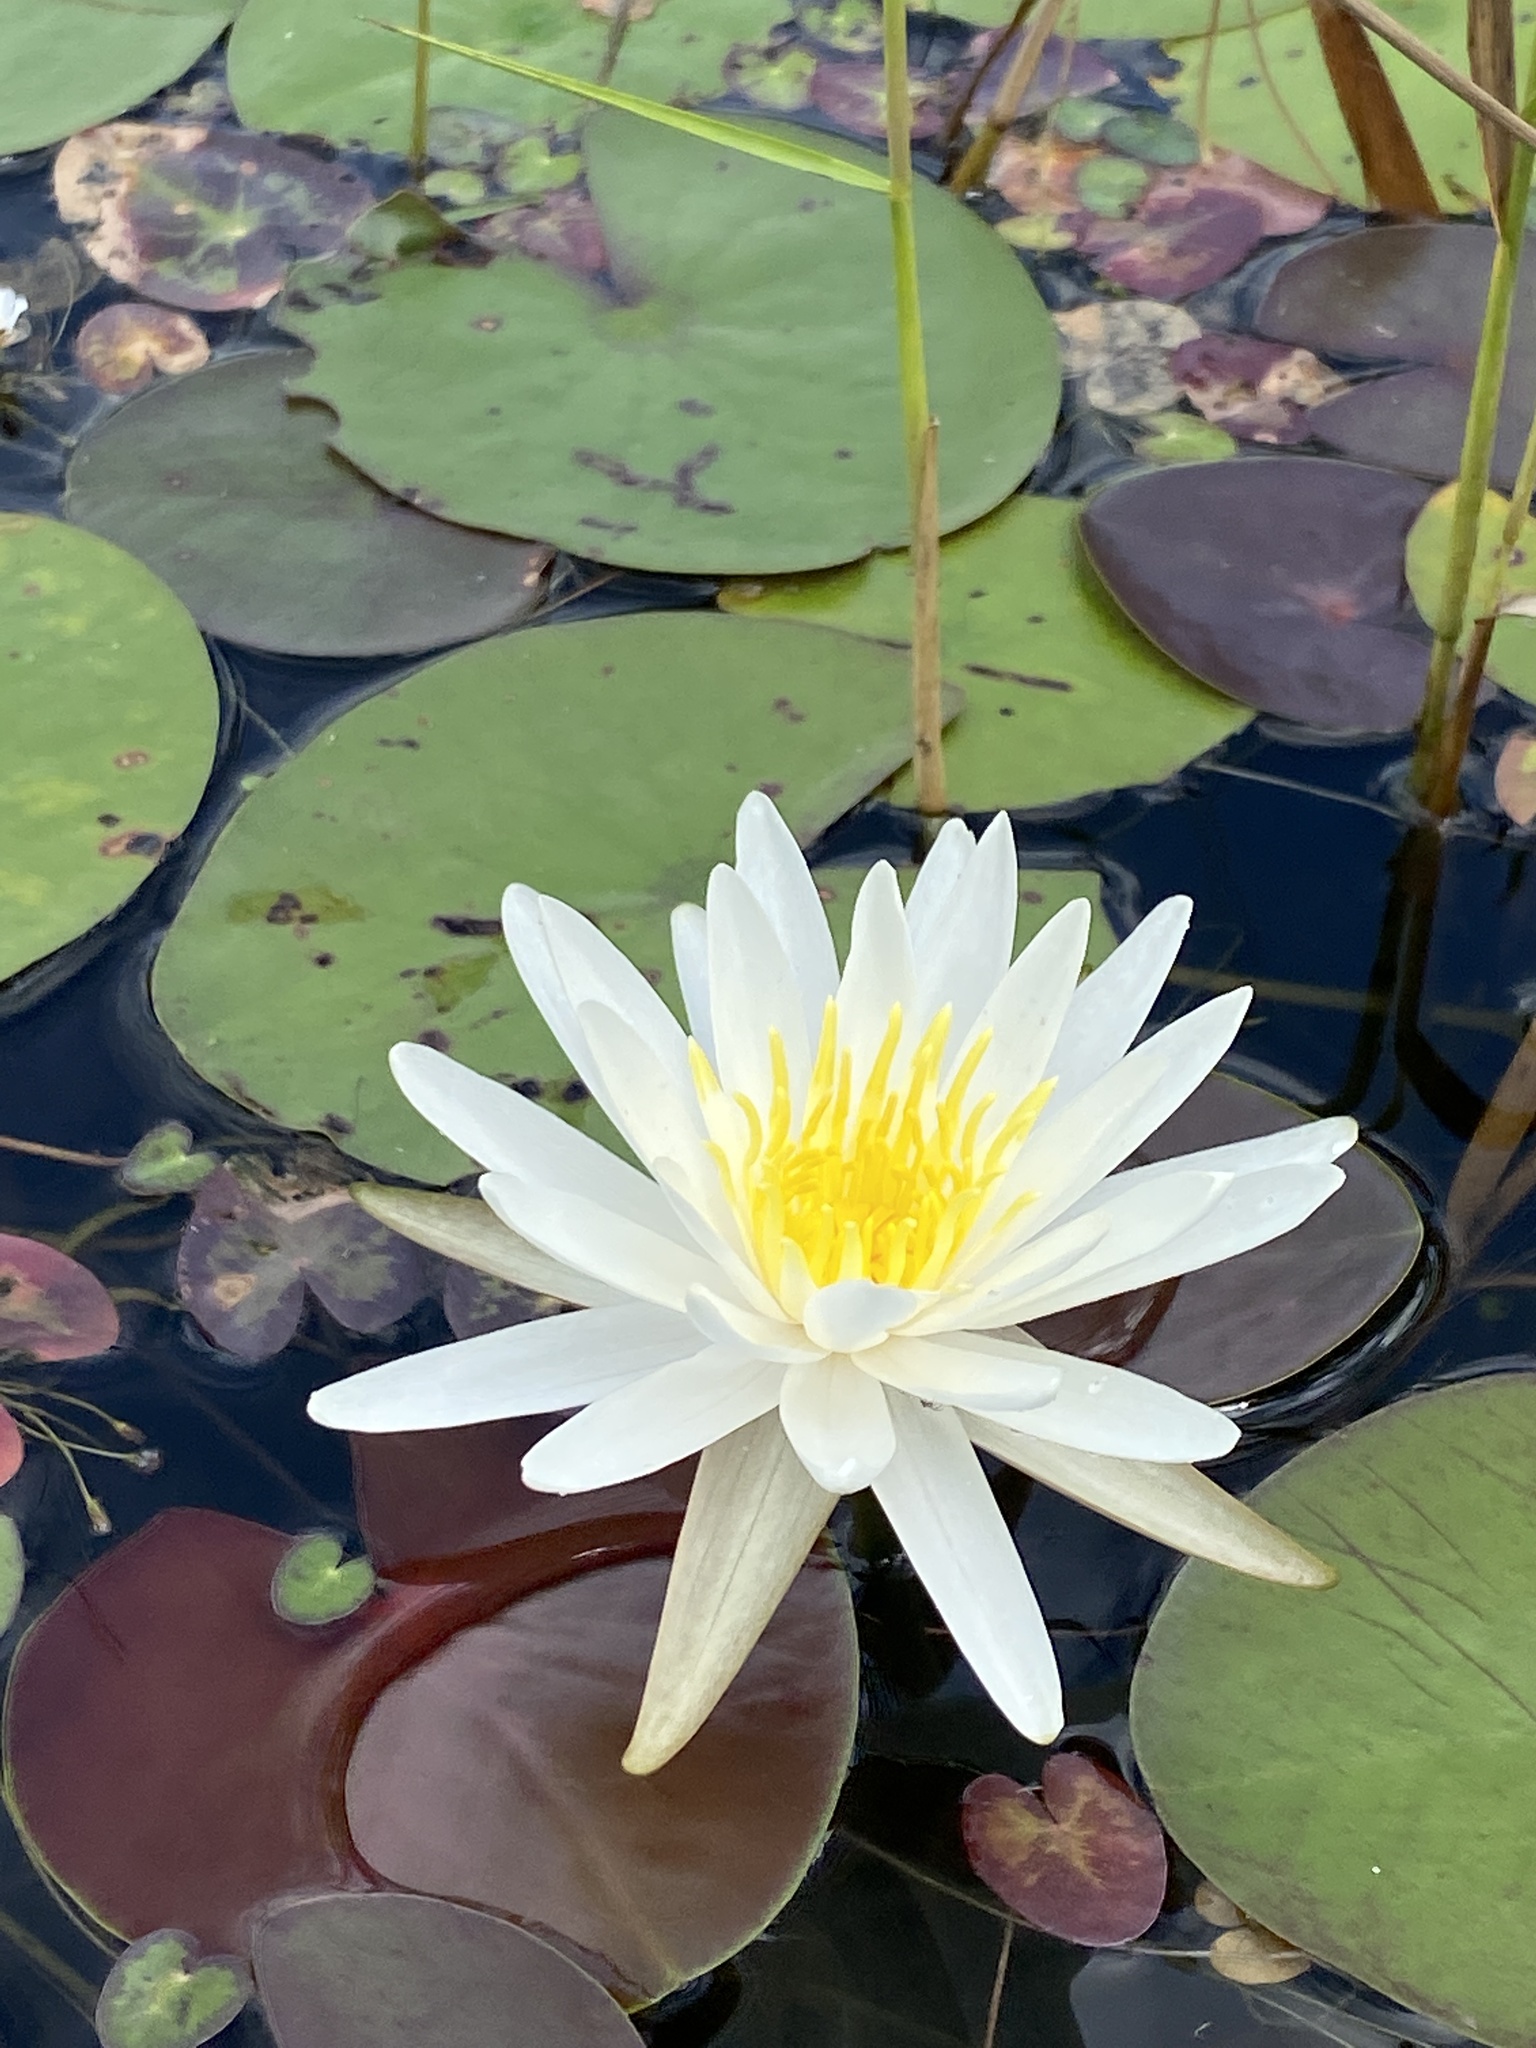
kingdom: Plantae
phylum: Tracheophyta
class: Magnoliopsida
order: Nymphaeales
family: Nymphaeaceae
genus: Nymphaea
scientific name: Nymphaea odorata
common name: Fragrant water-lily
